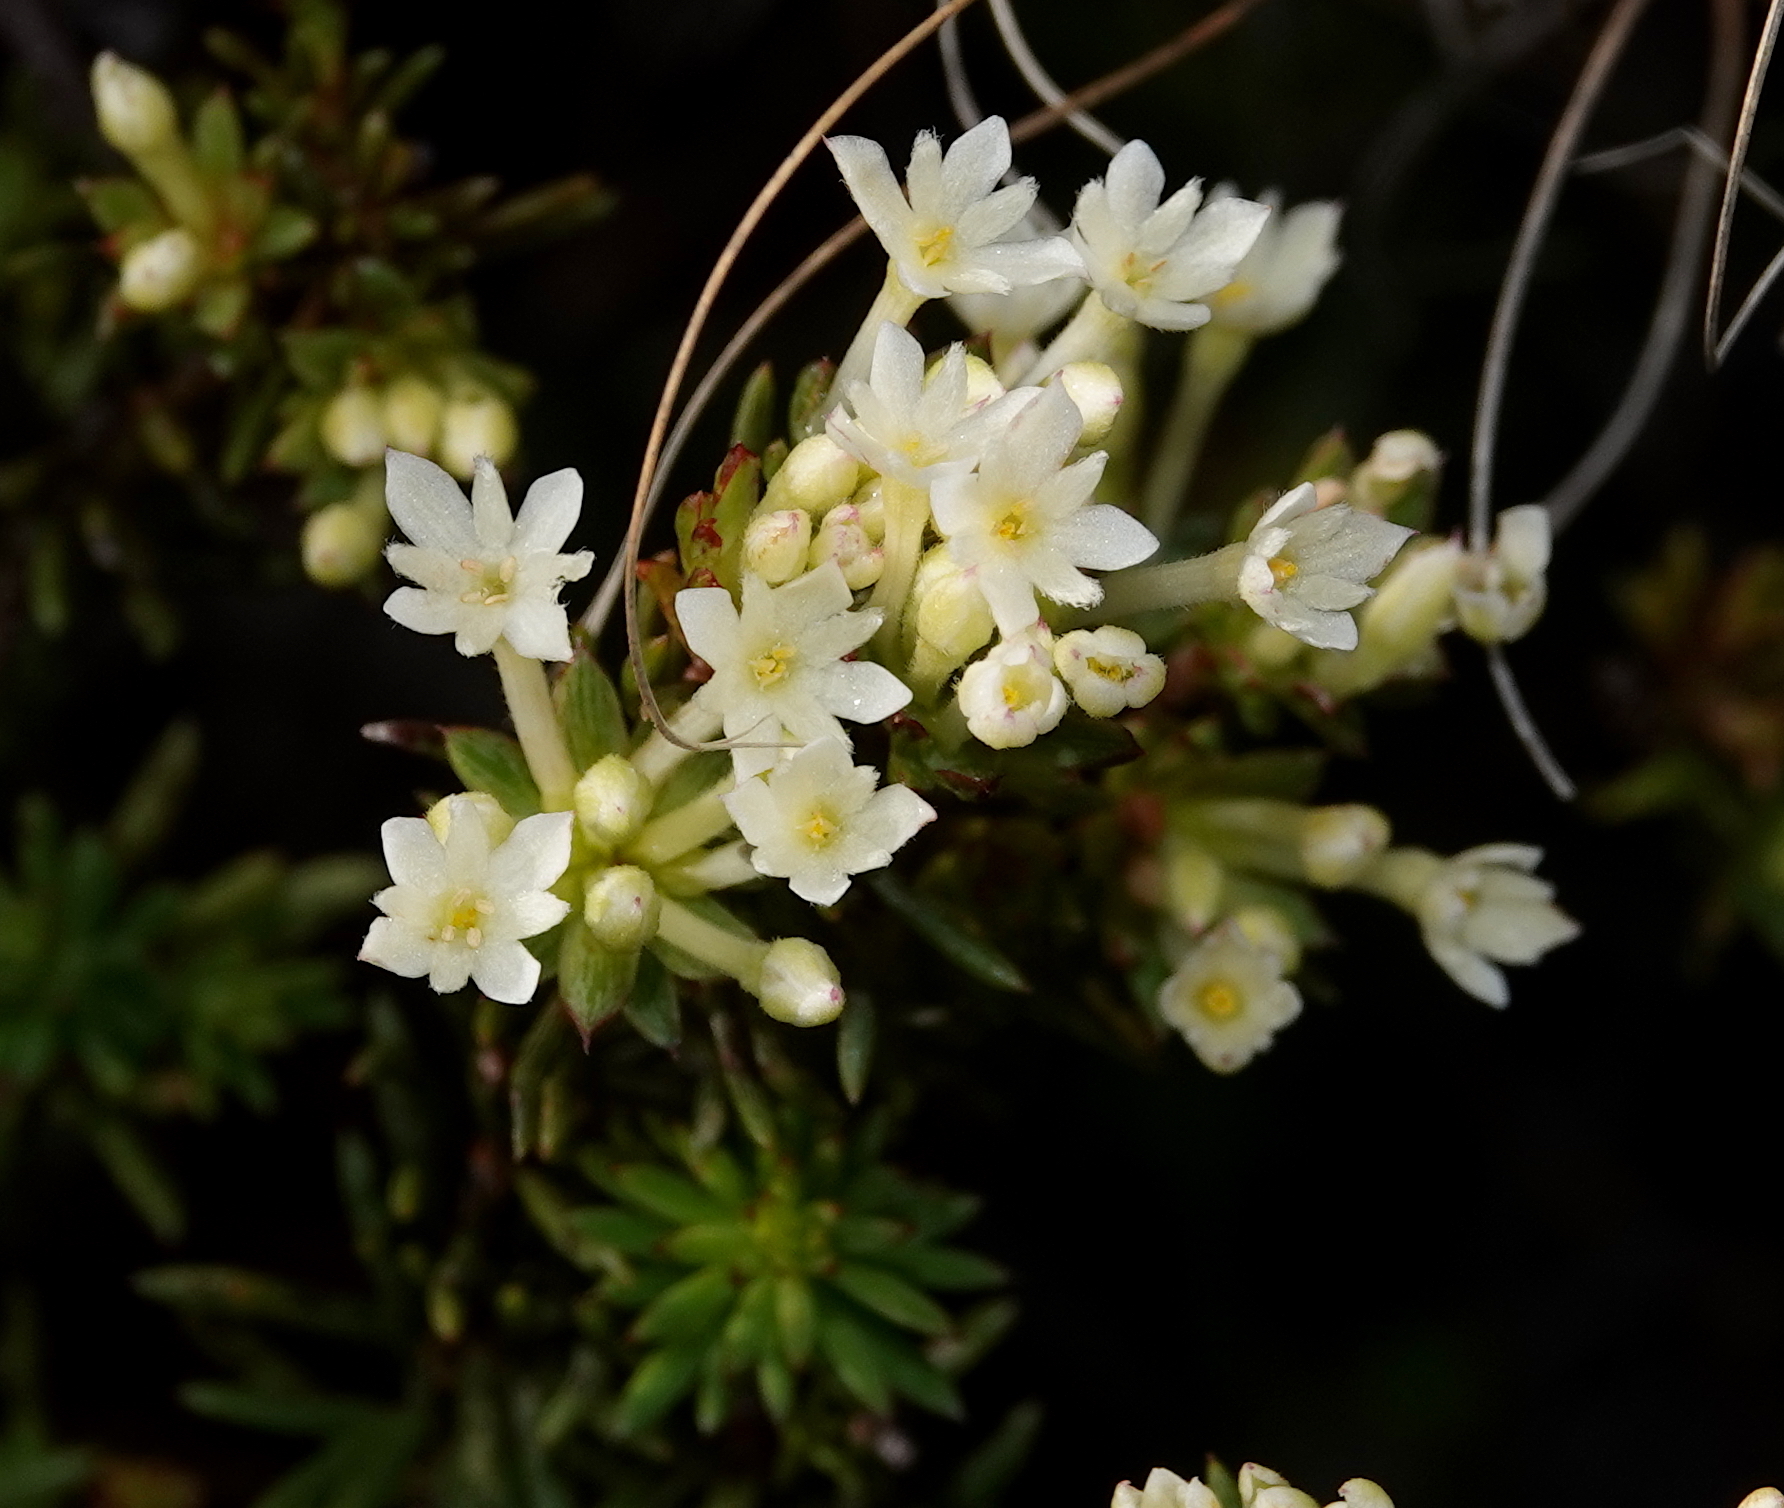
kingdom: Plantae
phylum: Tracheophyta
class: Magnoliopsida
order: Malvales
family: Thymelaeaceae
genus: Gnidia
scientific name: Gnidia pinifolia
